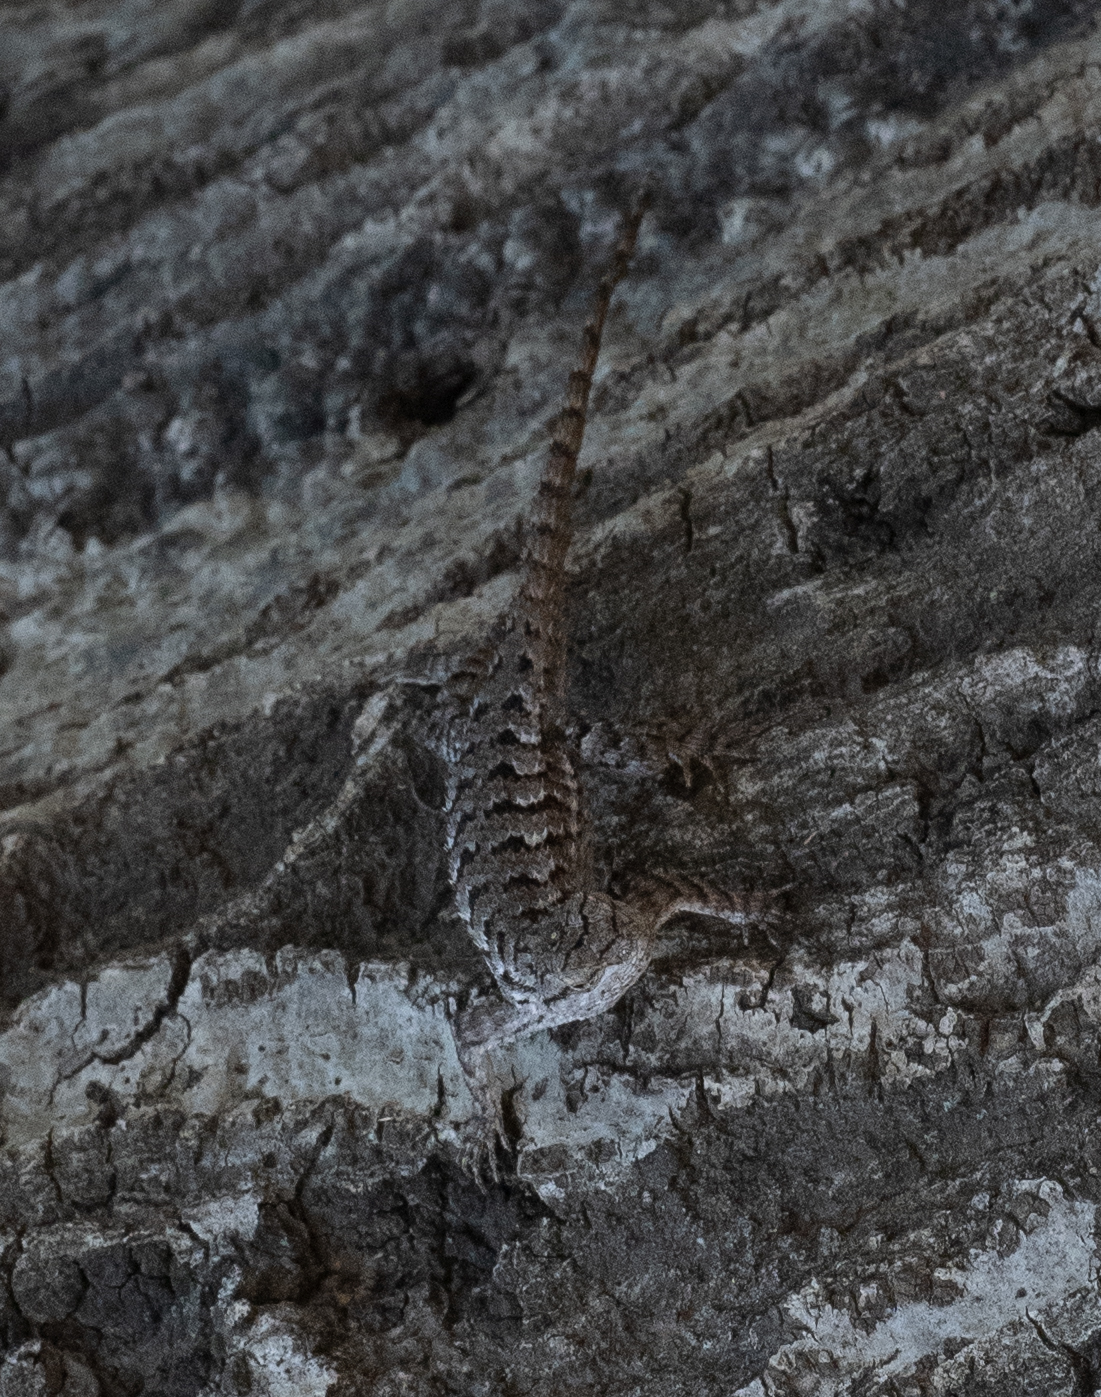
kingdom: Animalia
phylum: Chordata
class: Squamata
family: Phrynosomatidae
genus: Sceloporus
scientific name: Sceloporus occidentalis
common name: Western fence lizard
